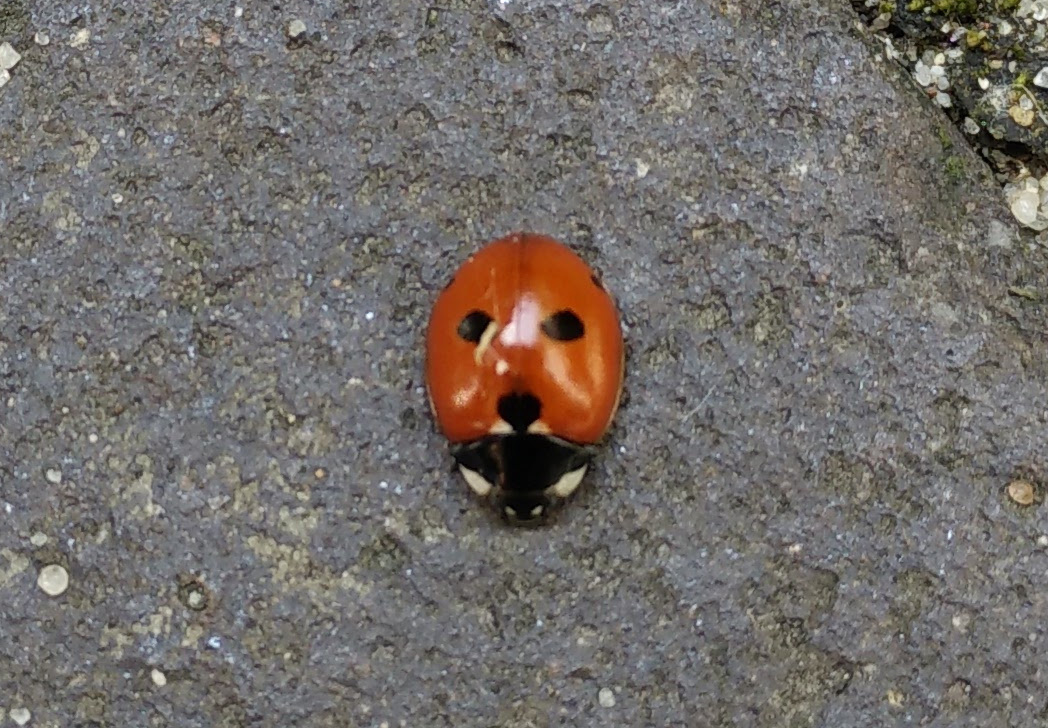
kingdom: Animalia
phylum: Arthropoda
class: Insecta
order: Coleoptera
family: Coccinellidae
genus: Coccinella
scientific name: Coccinella quinquepunctata
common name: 5-spot ladybird
